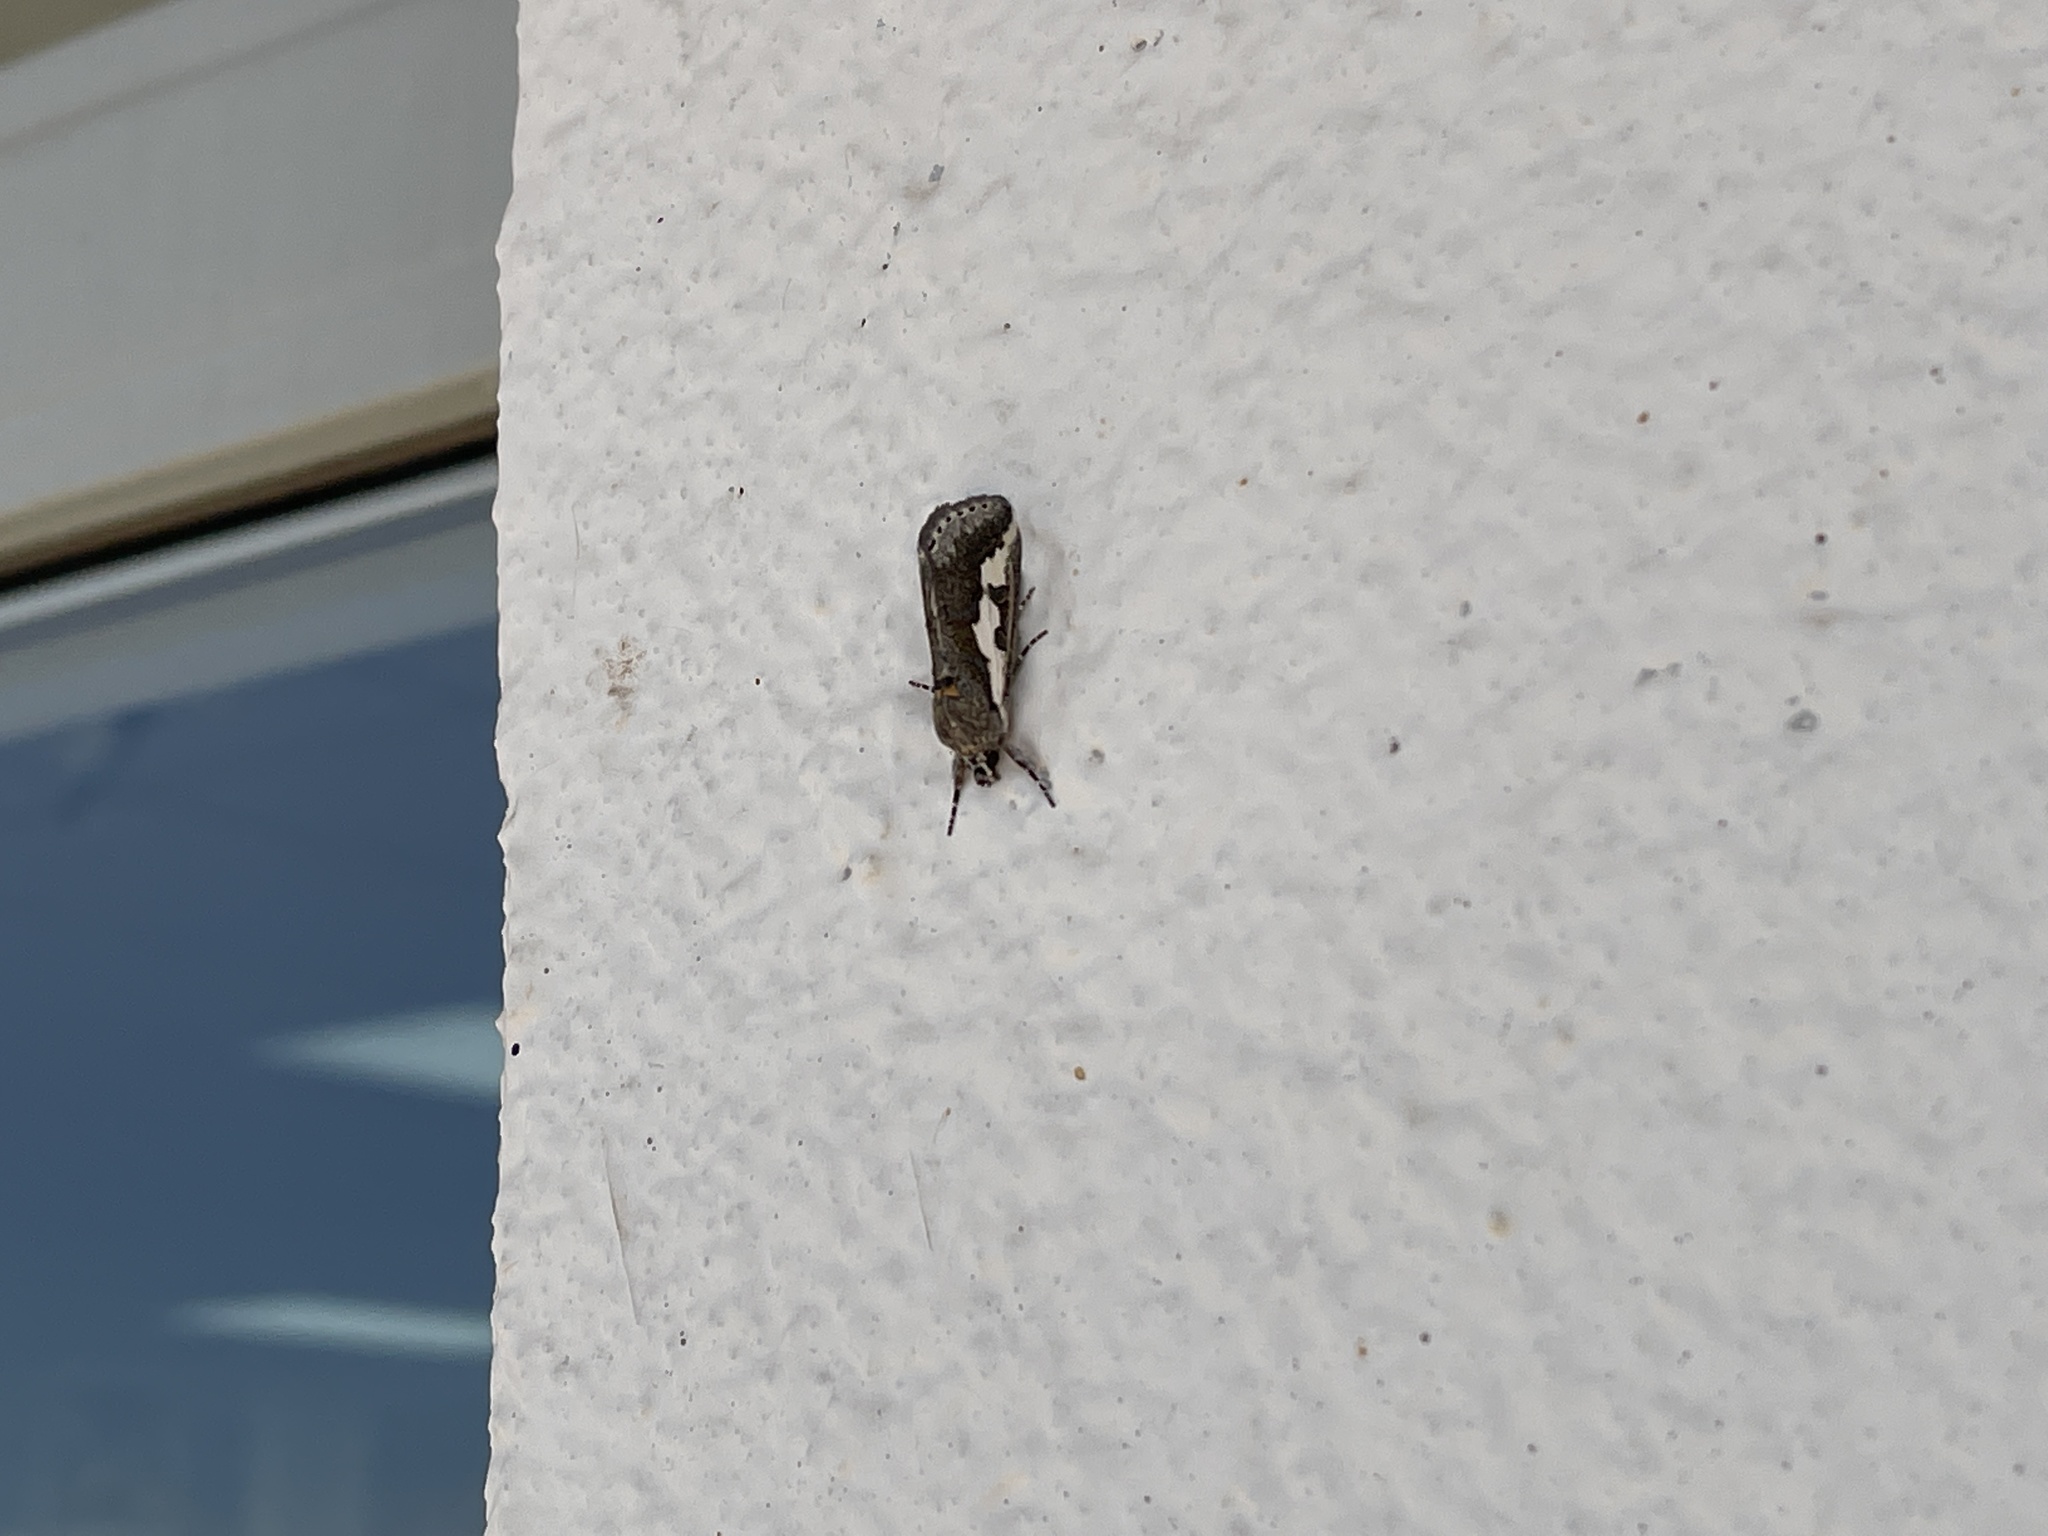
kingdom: Animalia
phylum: Arthropoda
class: Insecta
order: Lepidoptera
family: Noctuidae
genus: Euscirrhopterus
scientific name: Euscirrhopterus gloveri
